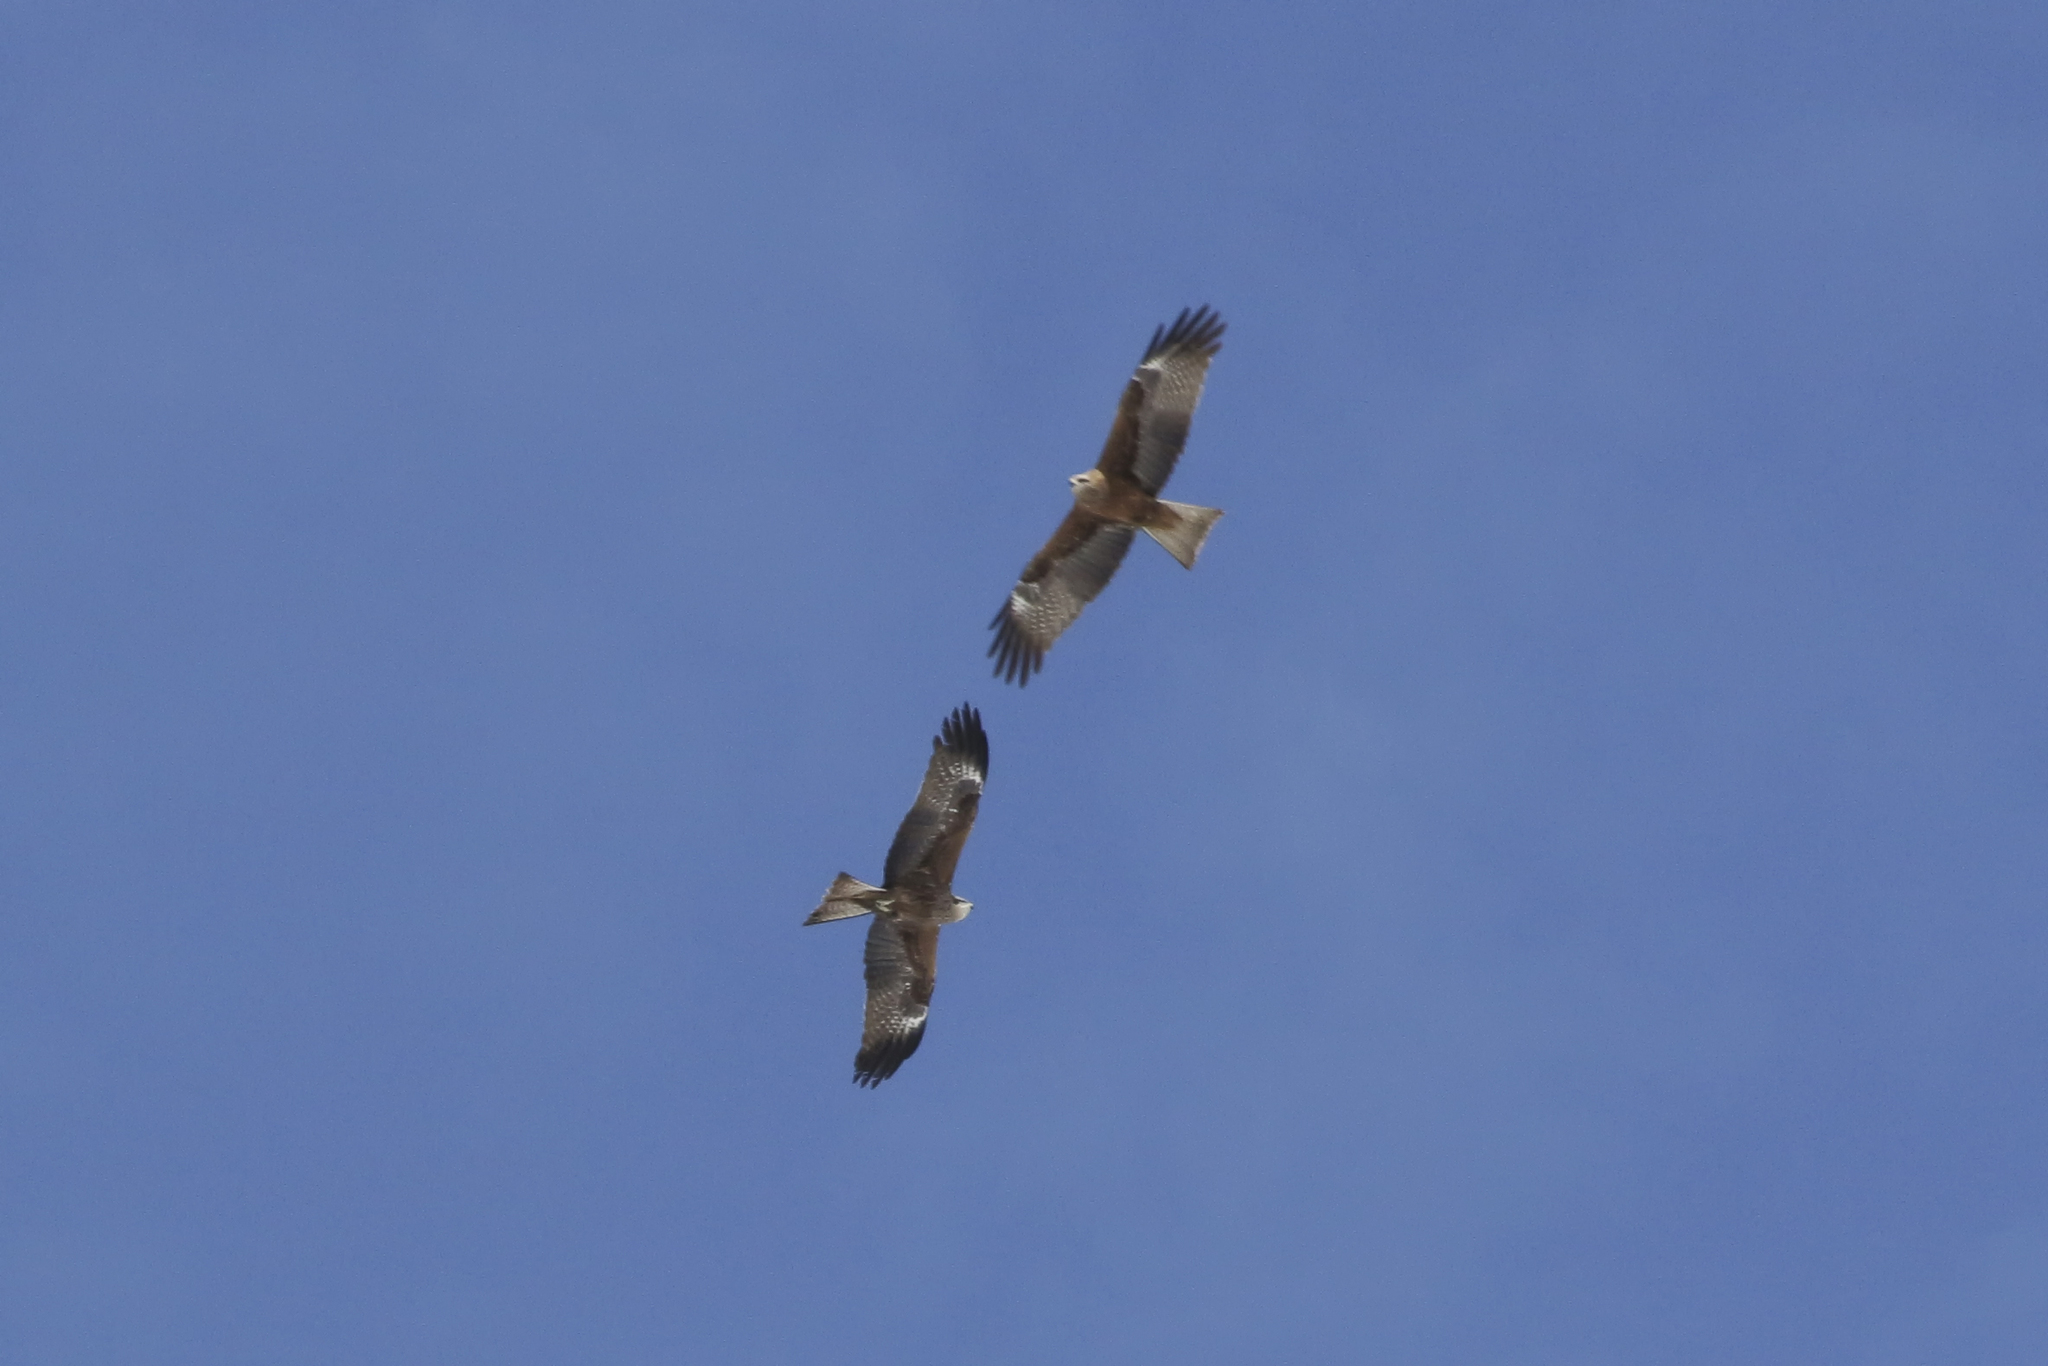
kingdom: Animalia
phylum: Chordata
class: Aves
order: Accipitriformes
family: Accipitridae
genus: Milvus
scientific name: Milvus migrans
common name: Black kite
